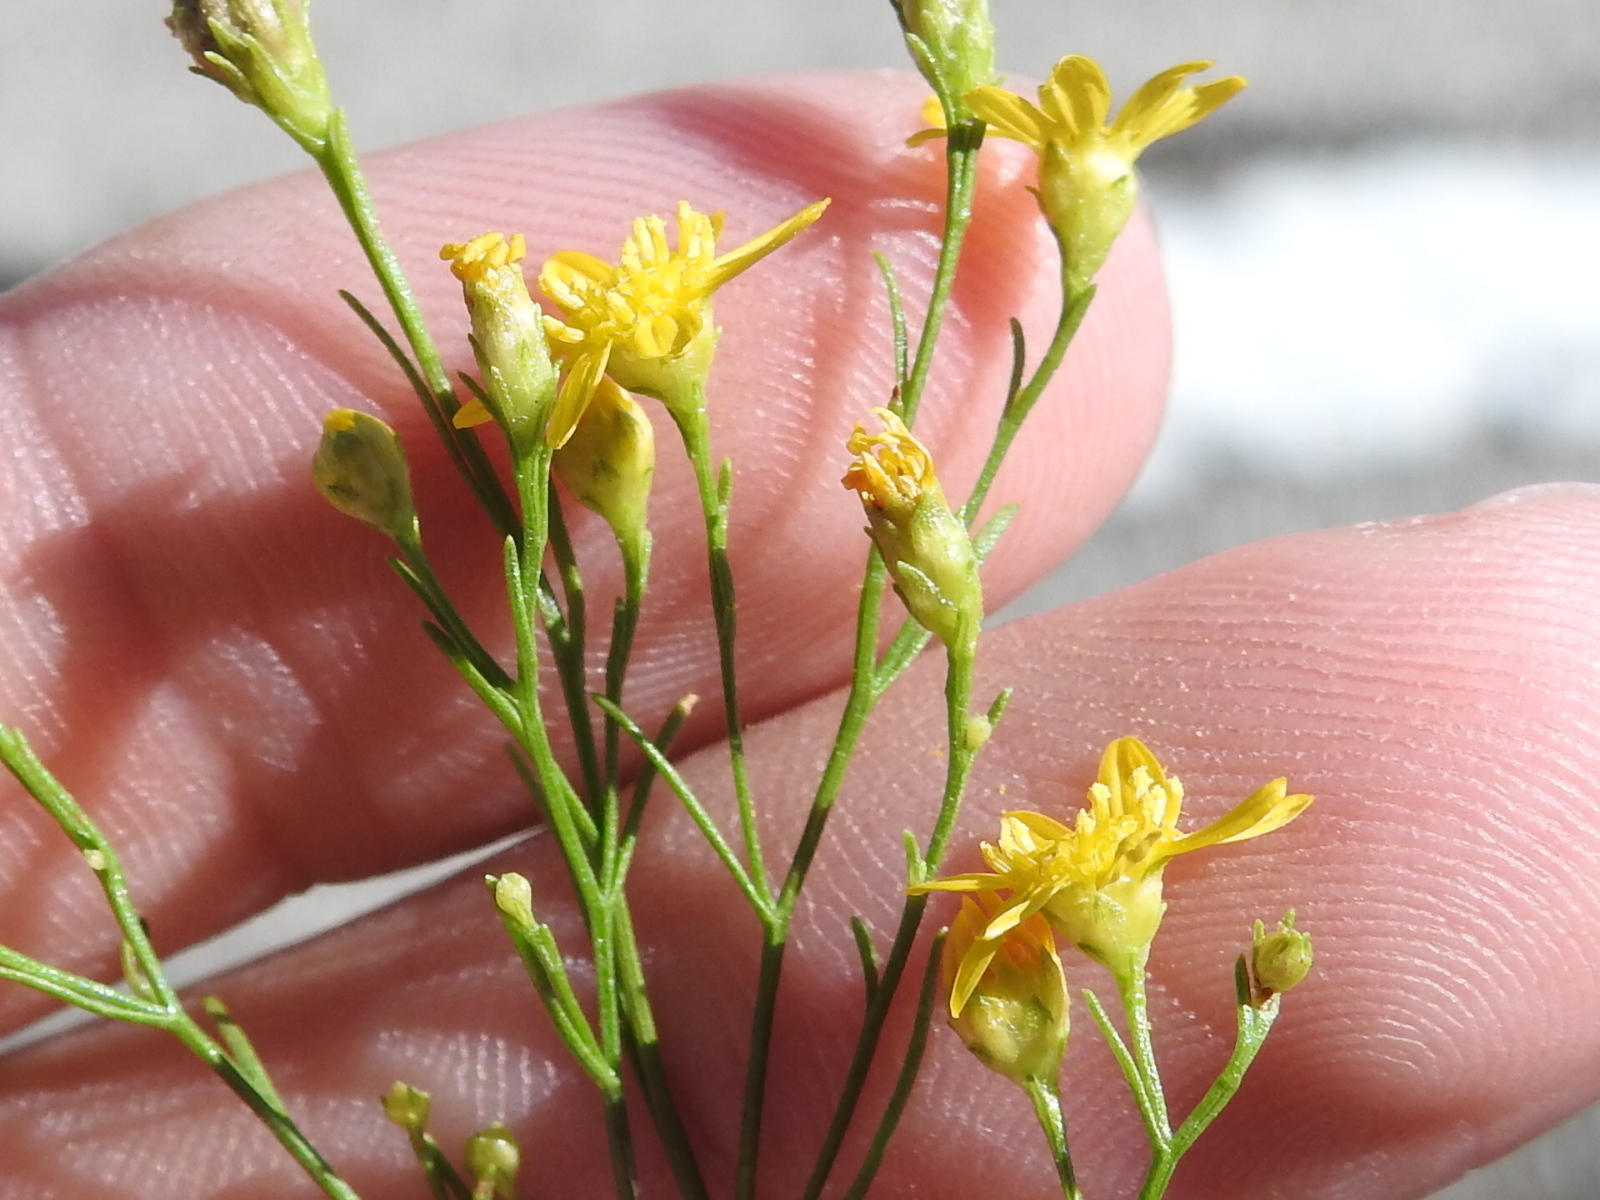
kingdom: Plantae
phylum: Tracheophyta
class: Magnoliopsida
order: Asterales
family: Asteraceae
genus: Amphiachyris
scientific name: Amphiachyris dracunculoides
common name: Broomweed
